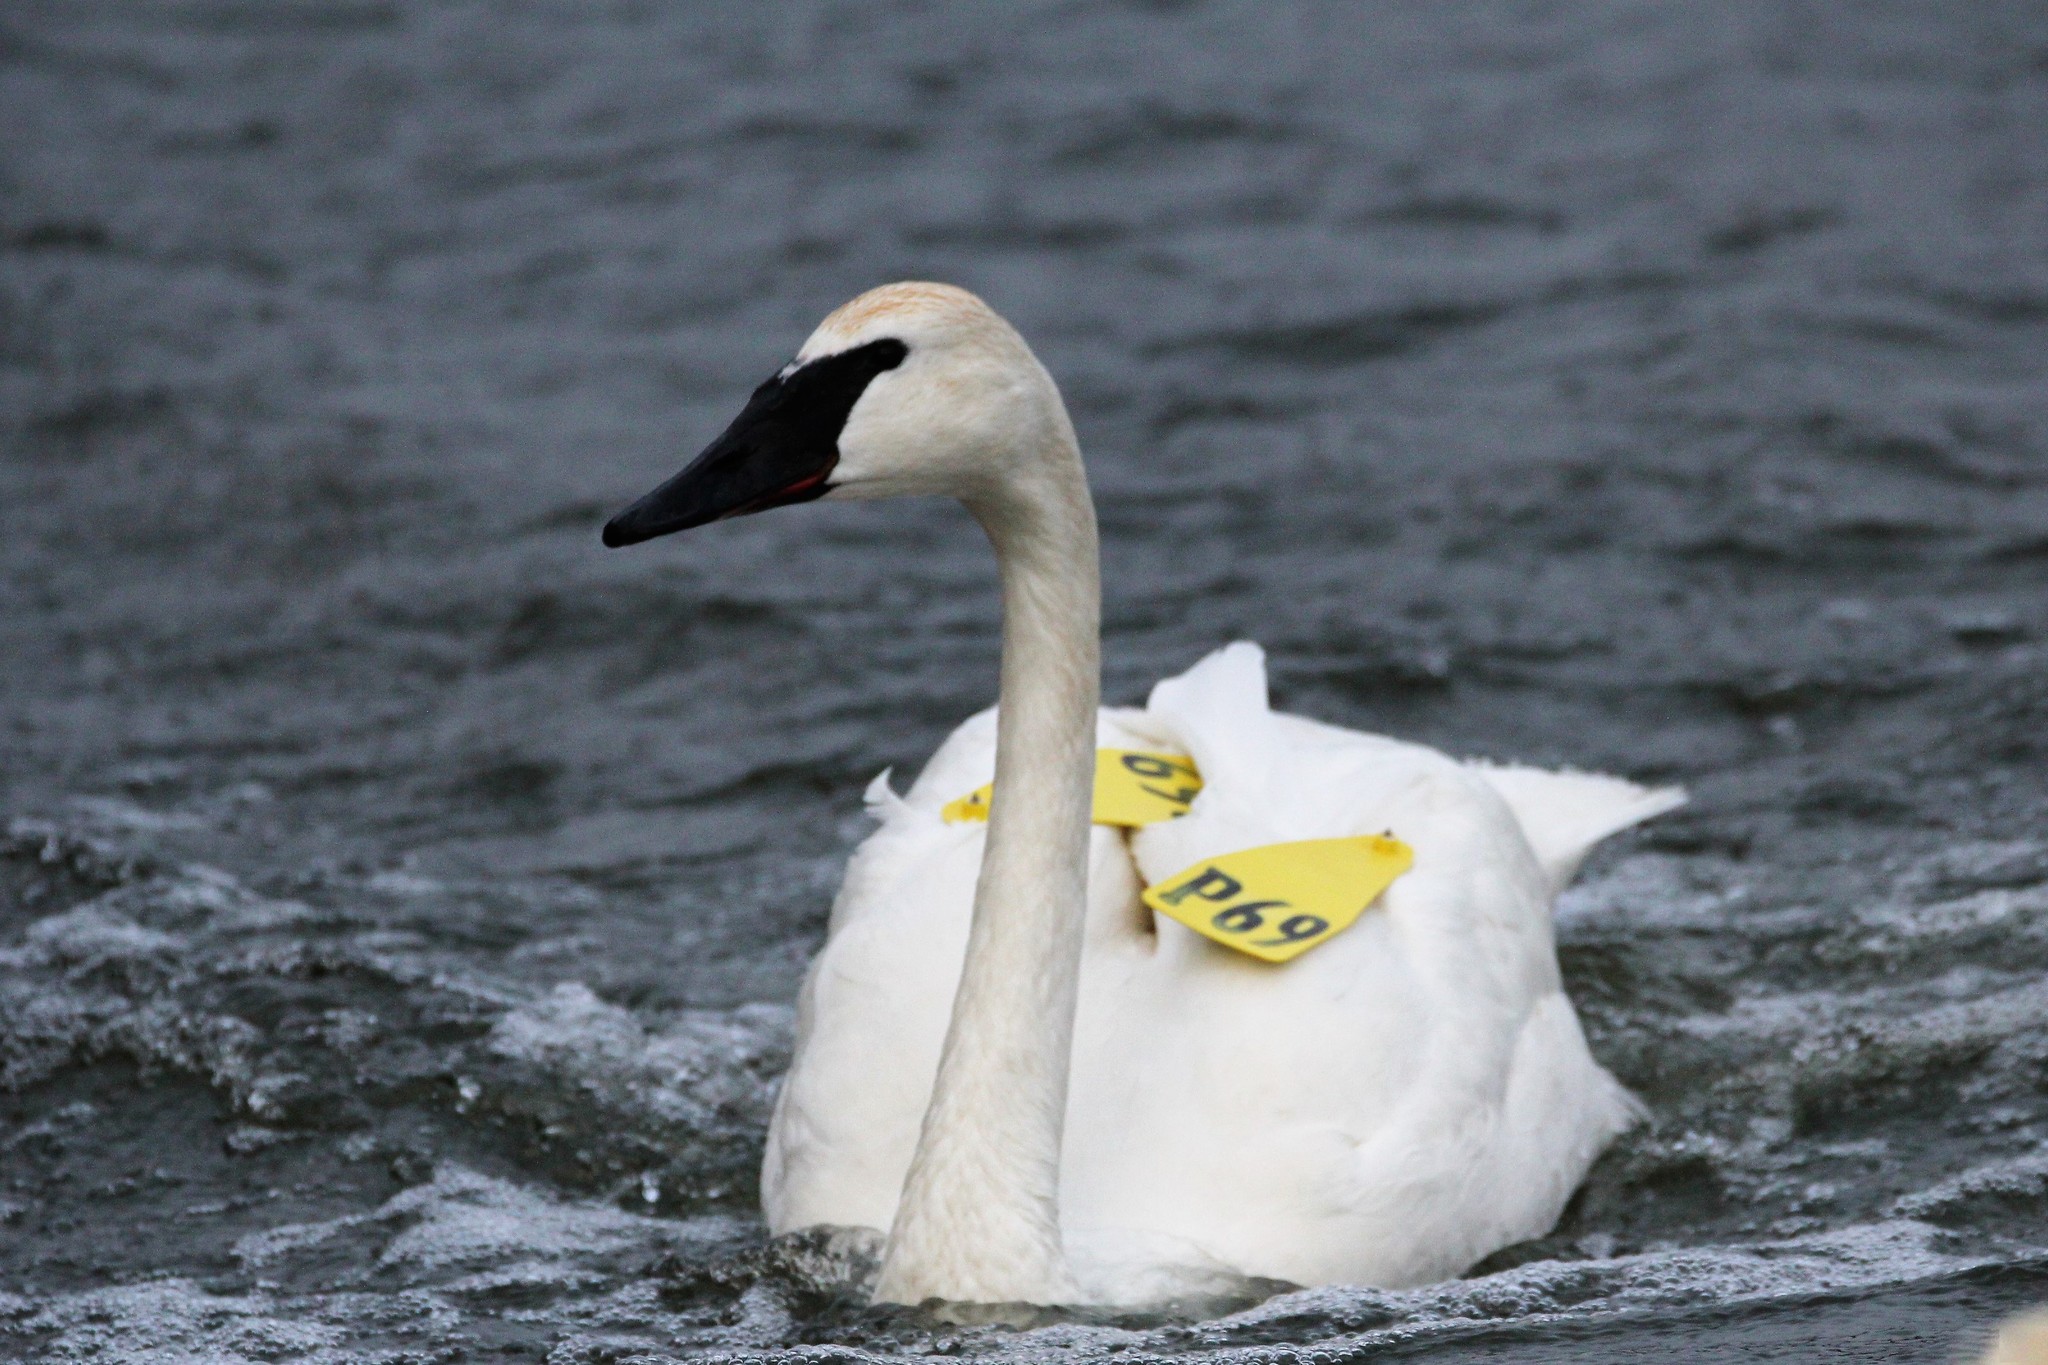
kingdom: Animalia
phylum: Chordata
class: Aves
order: Anseriformes
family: Anatidae
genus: Cygnus
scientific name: Cygnus buccinator
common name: Trumpeter swan
